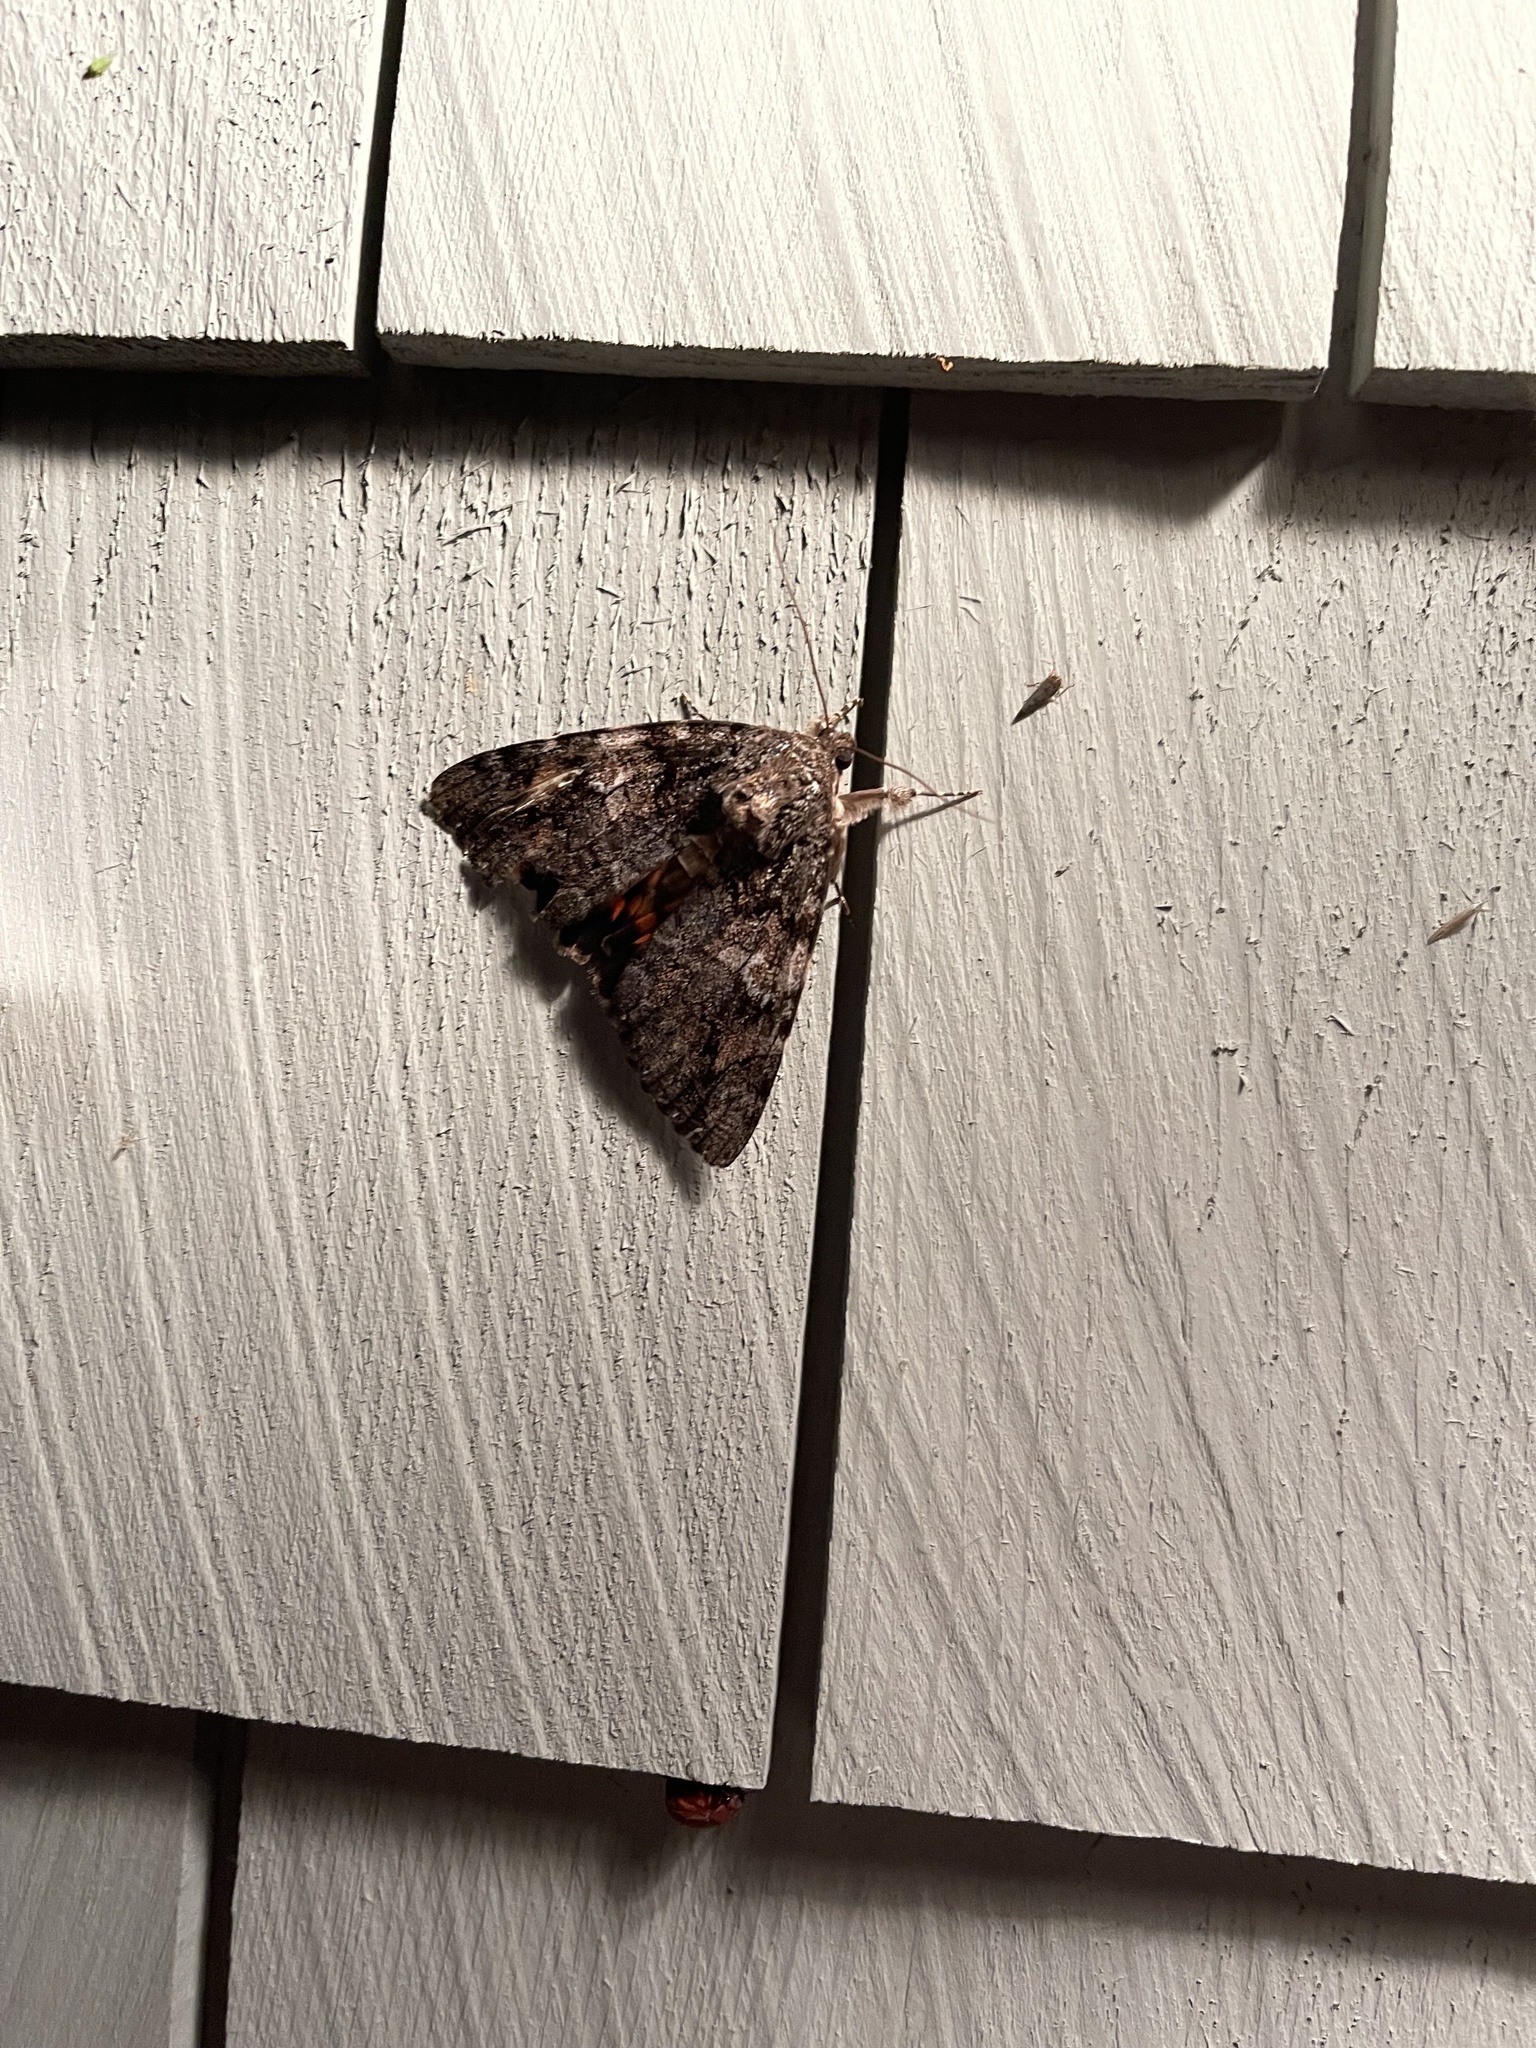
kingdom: Animalia
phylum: Arthropoda
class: Insecta
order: Lepidoptera
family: Erebidae
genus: Catocala
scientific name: Catocala ilia
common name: Ilia underwing
